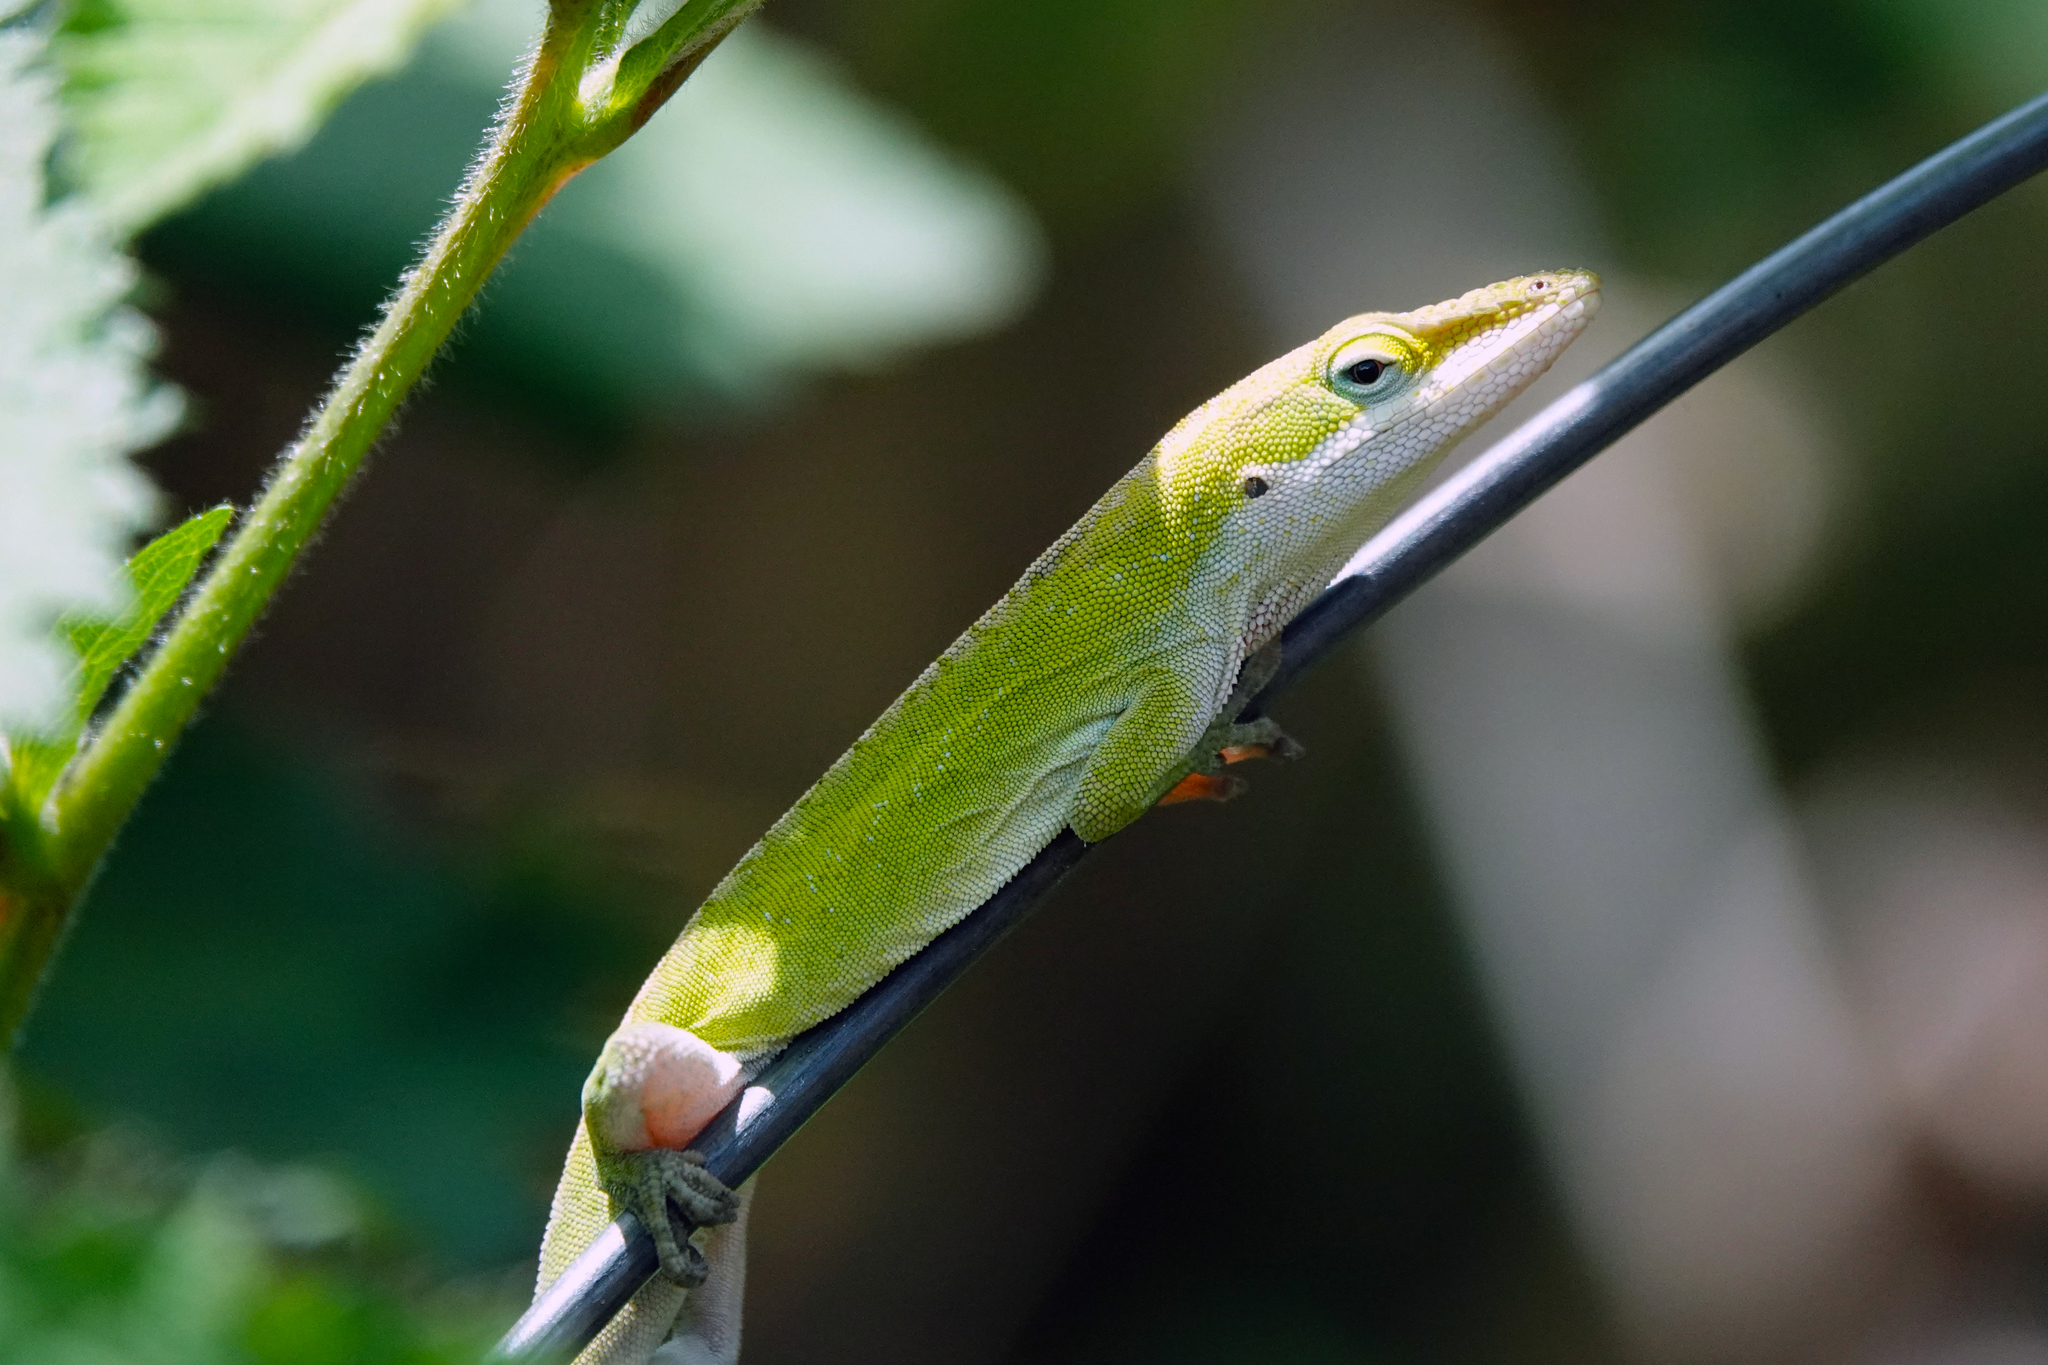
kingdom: Animalia
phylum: Chordata
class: Squamata
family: Dactyloidae
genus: Anolis
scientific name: Anolis carolinensis
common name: Green anole
